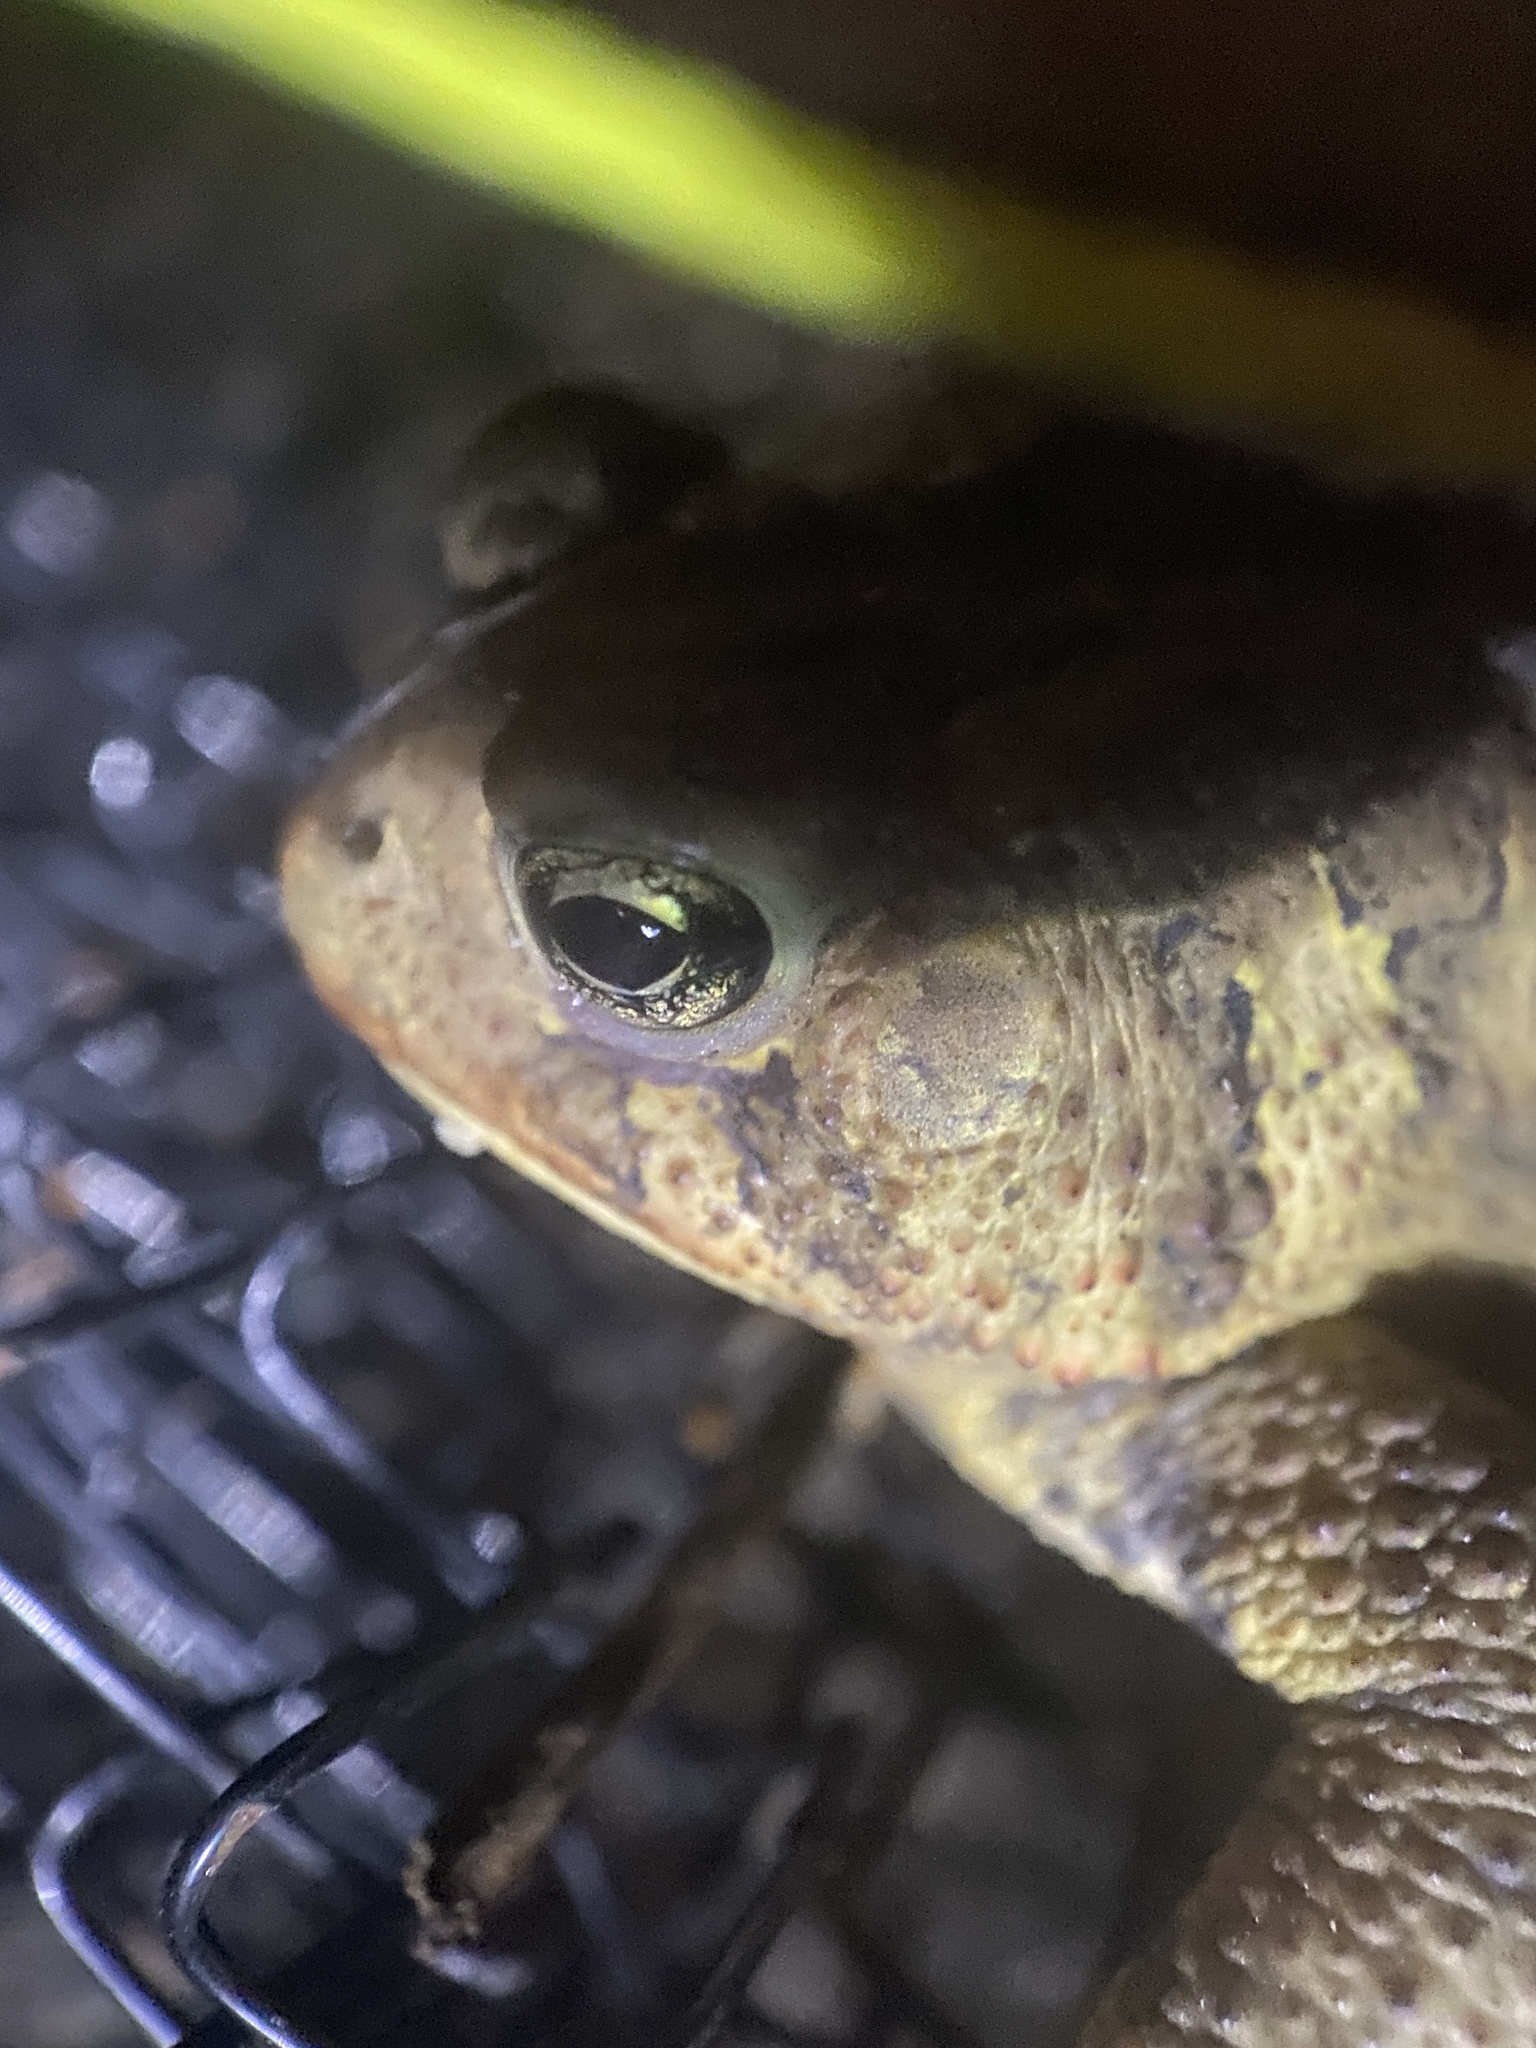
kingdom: Animalia
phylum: Chordata
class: Amphibia
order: Anura
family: Bufonidae
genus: Anaxyrus
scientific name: Anaxyrus americanus
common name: American toad
